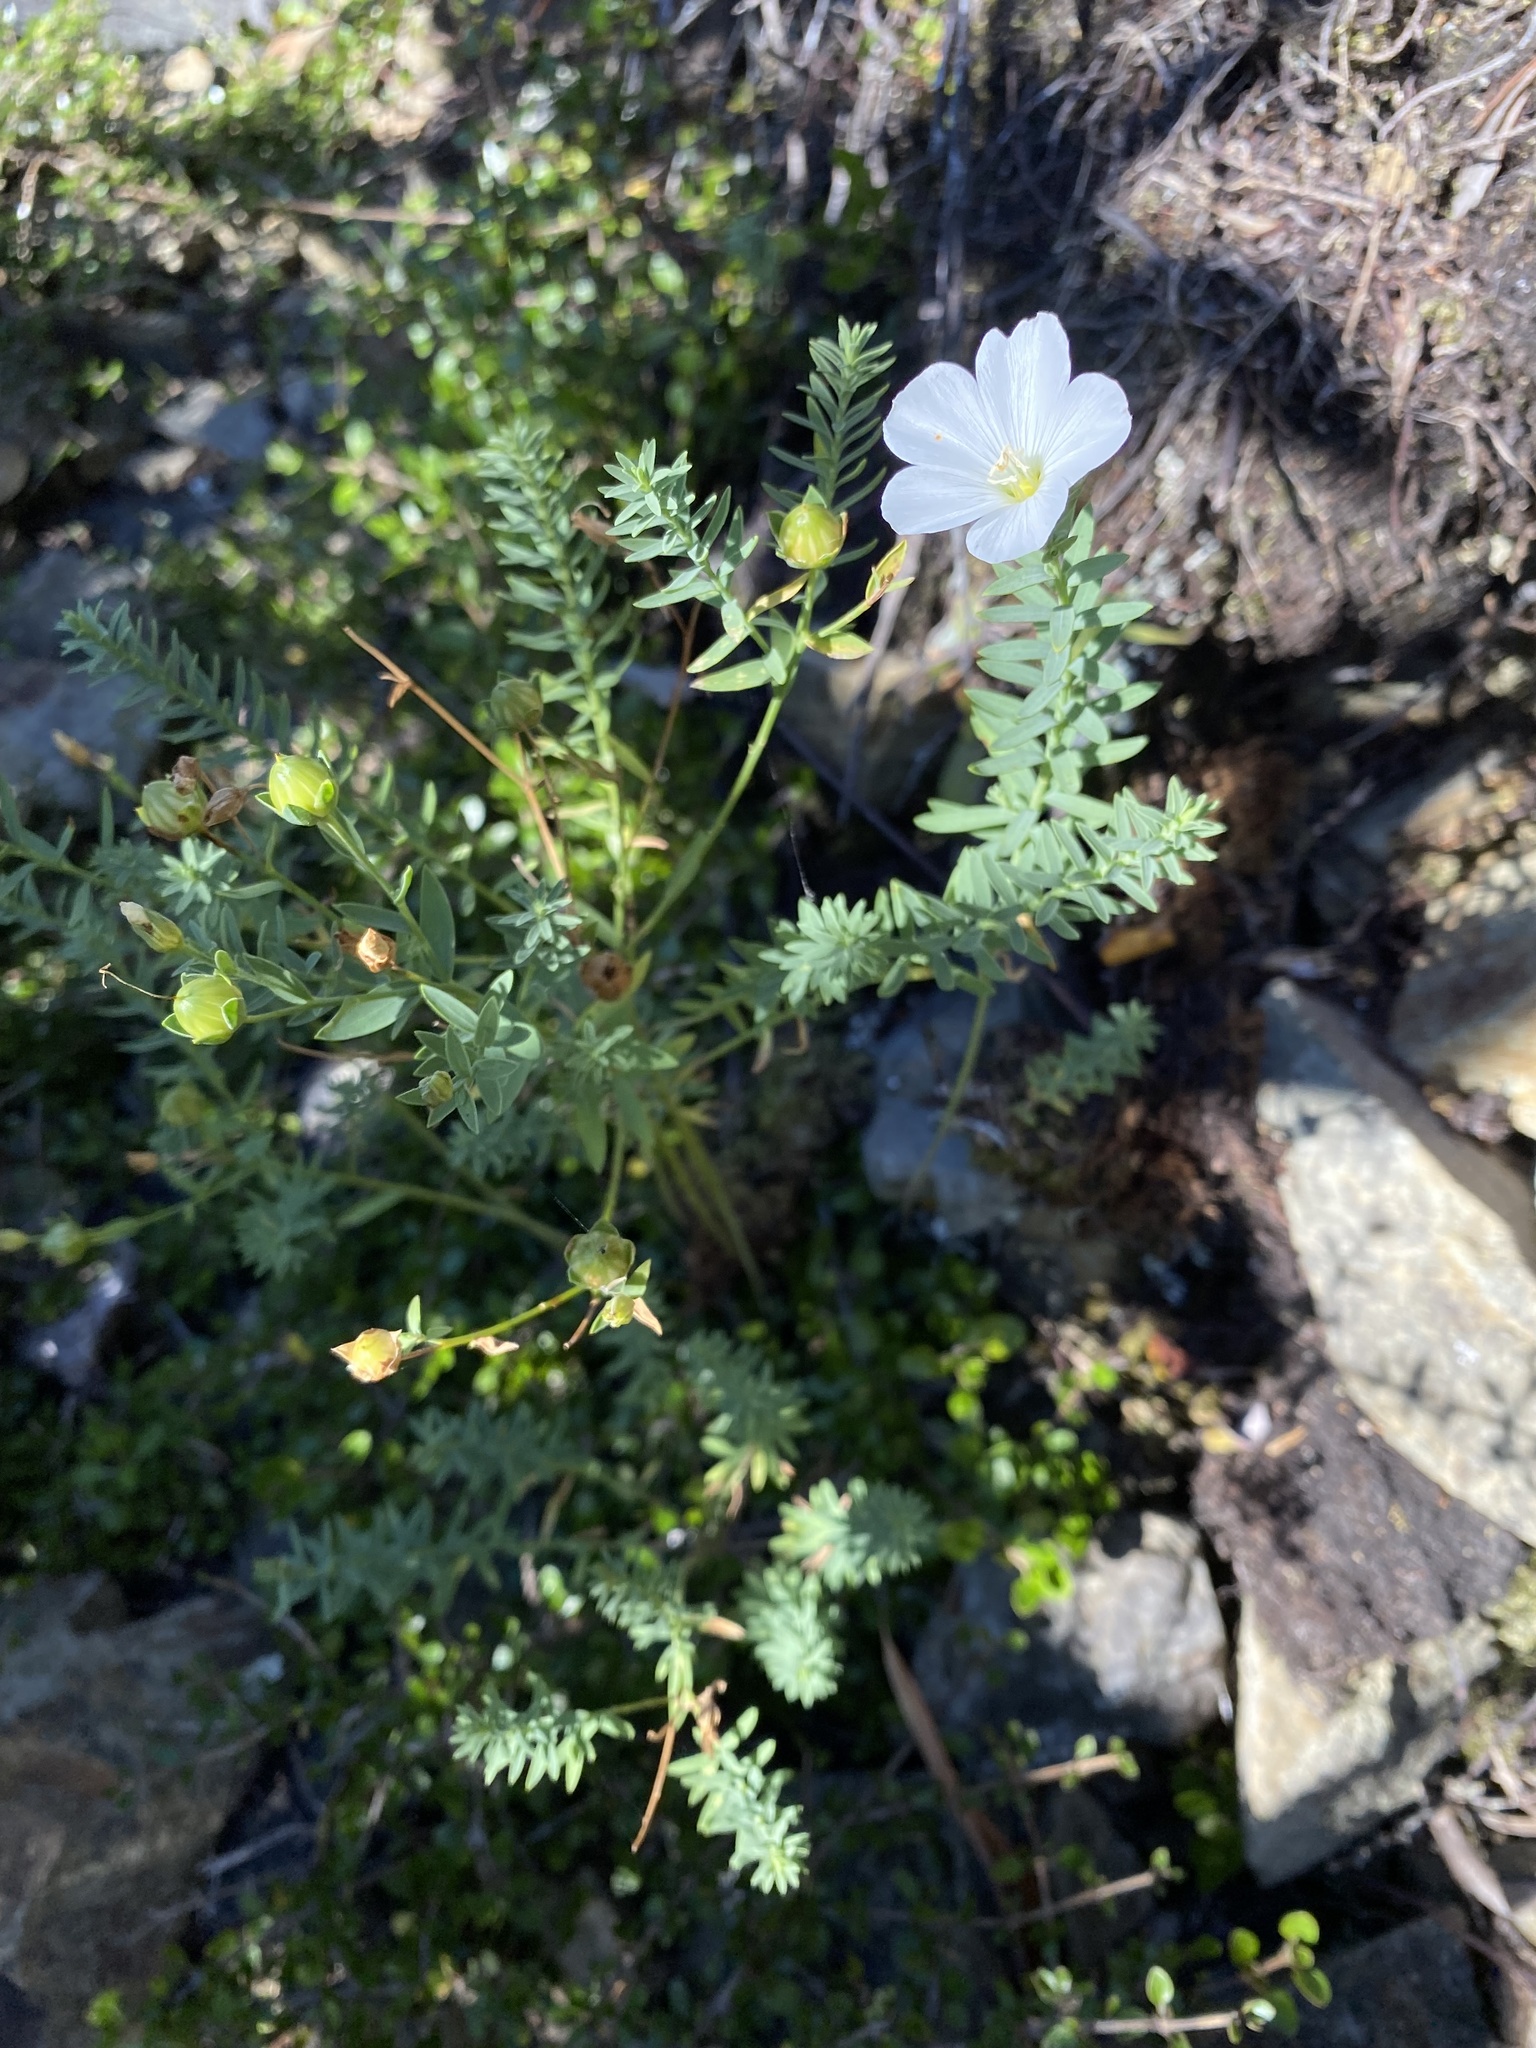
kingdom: Plantae
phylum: Tracheophyta
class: Magnoliopsida
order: Malpighiales
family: Linaceae
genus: Linum
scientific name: Linum monogynum
